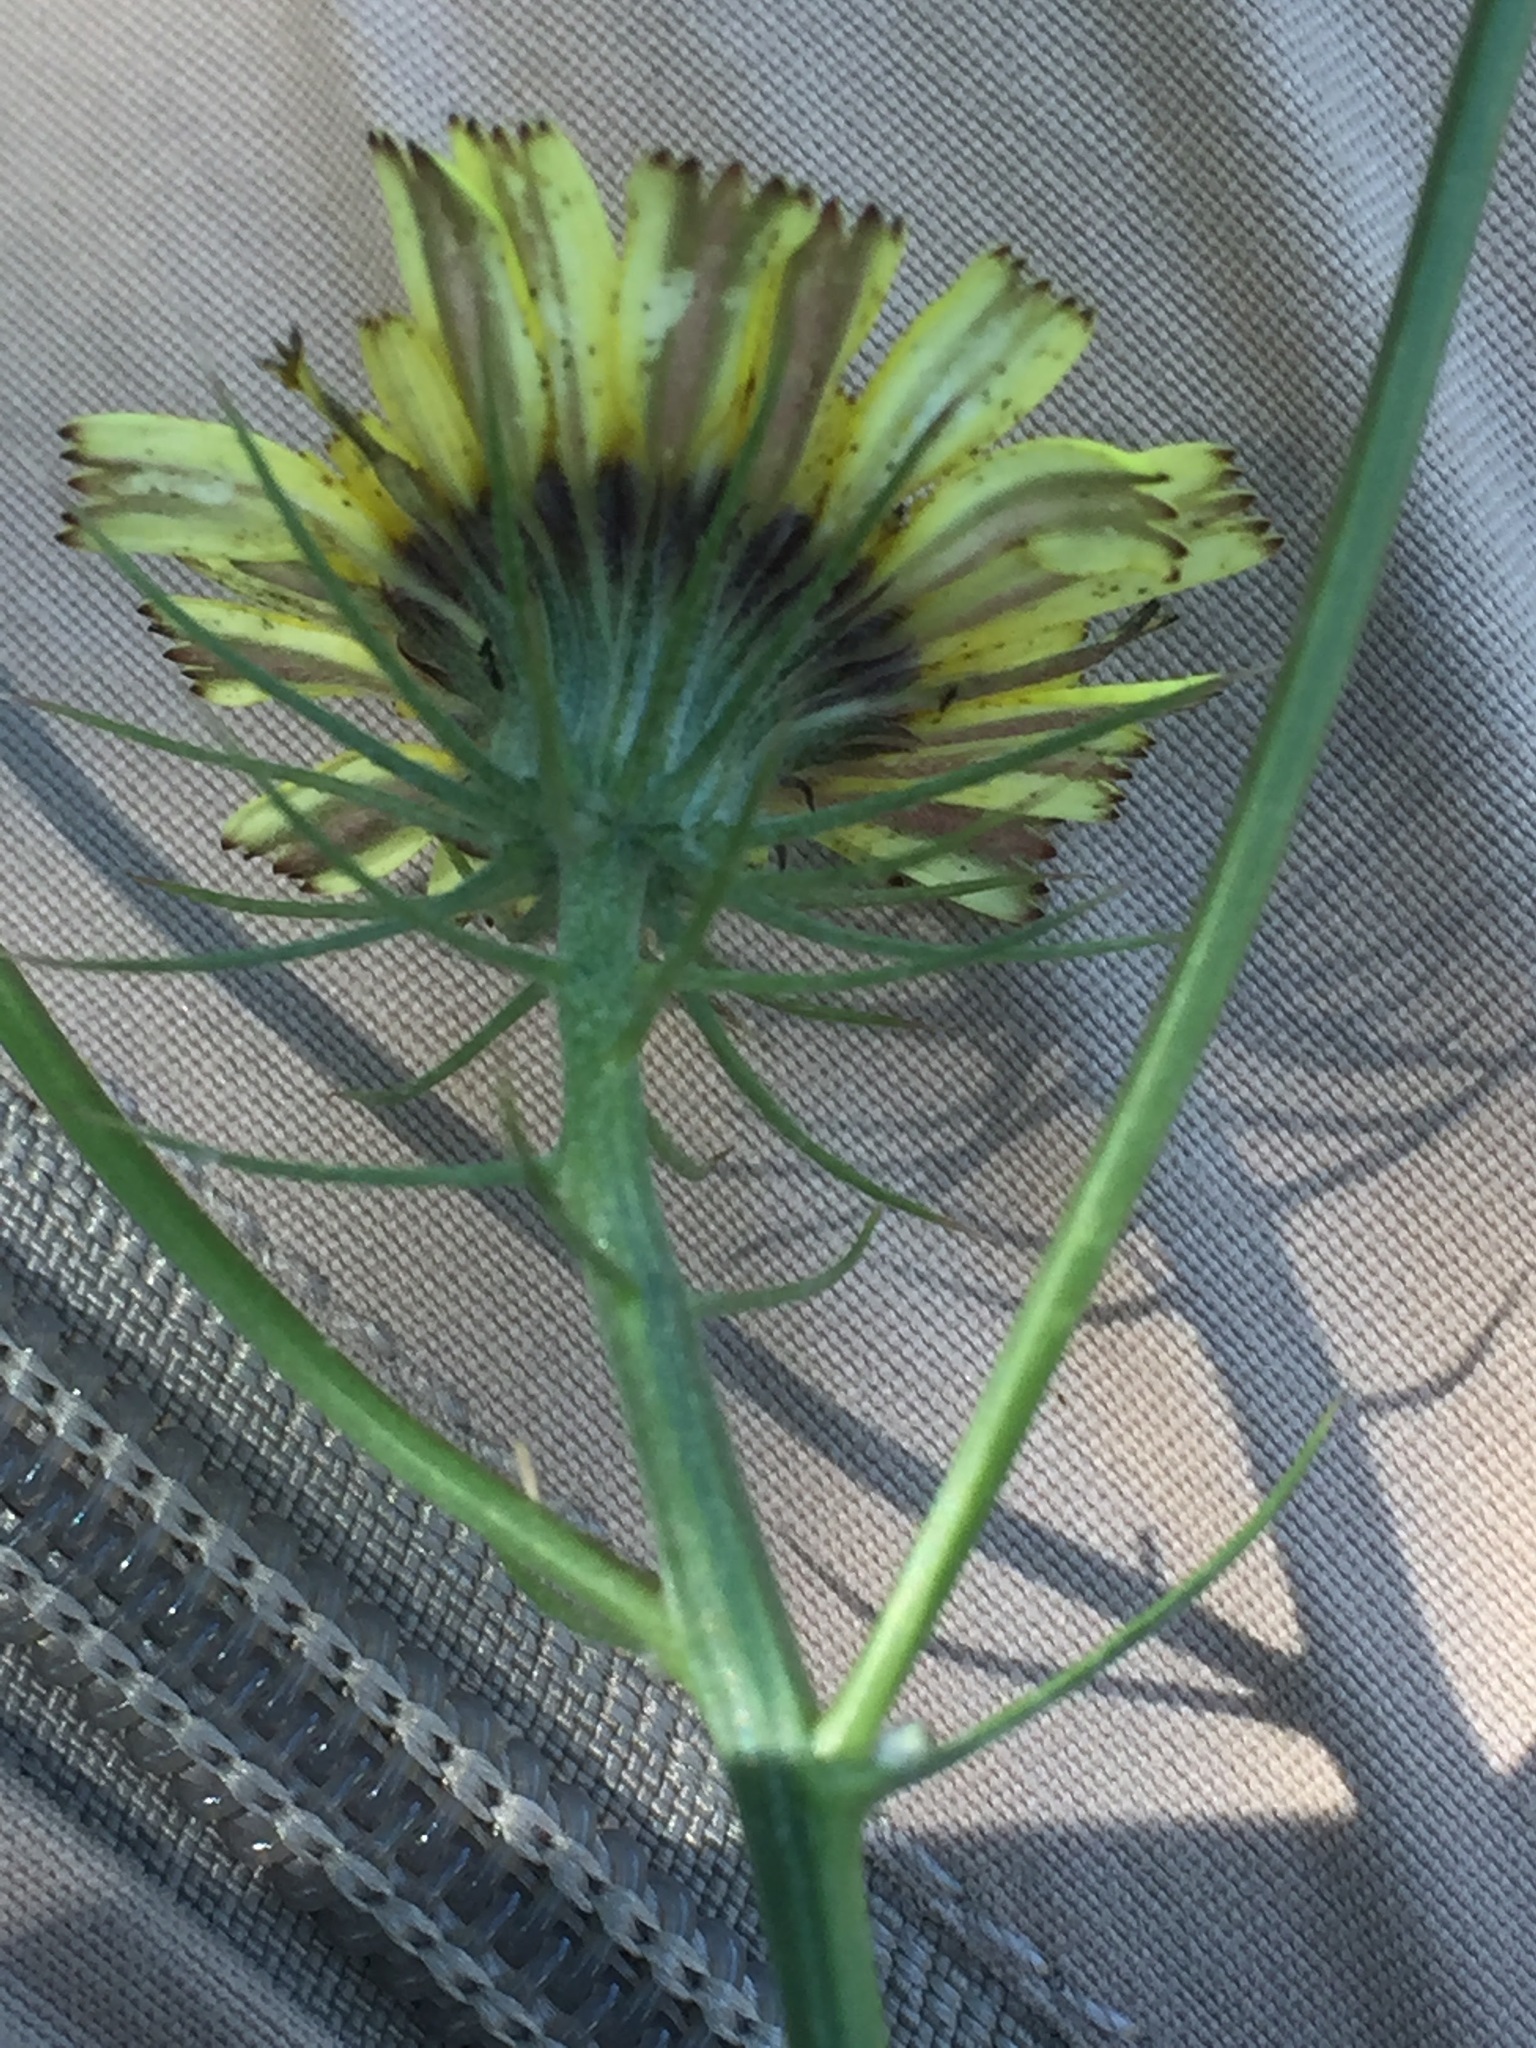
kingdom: Plantae
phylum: Tracheophyta
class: Magnoliopsida
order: Asterales
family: Asteraceae
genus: Tolpis
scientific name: Tolpis barbata
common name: Yellow hawkweed
